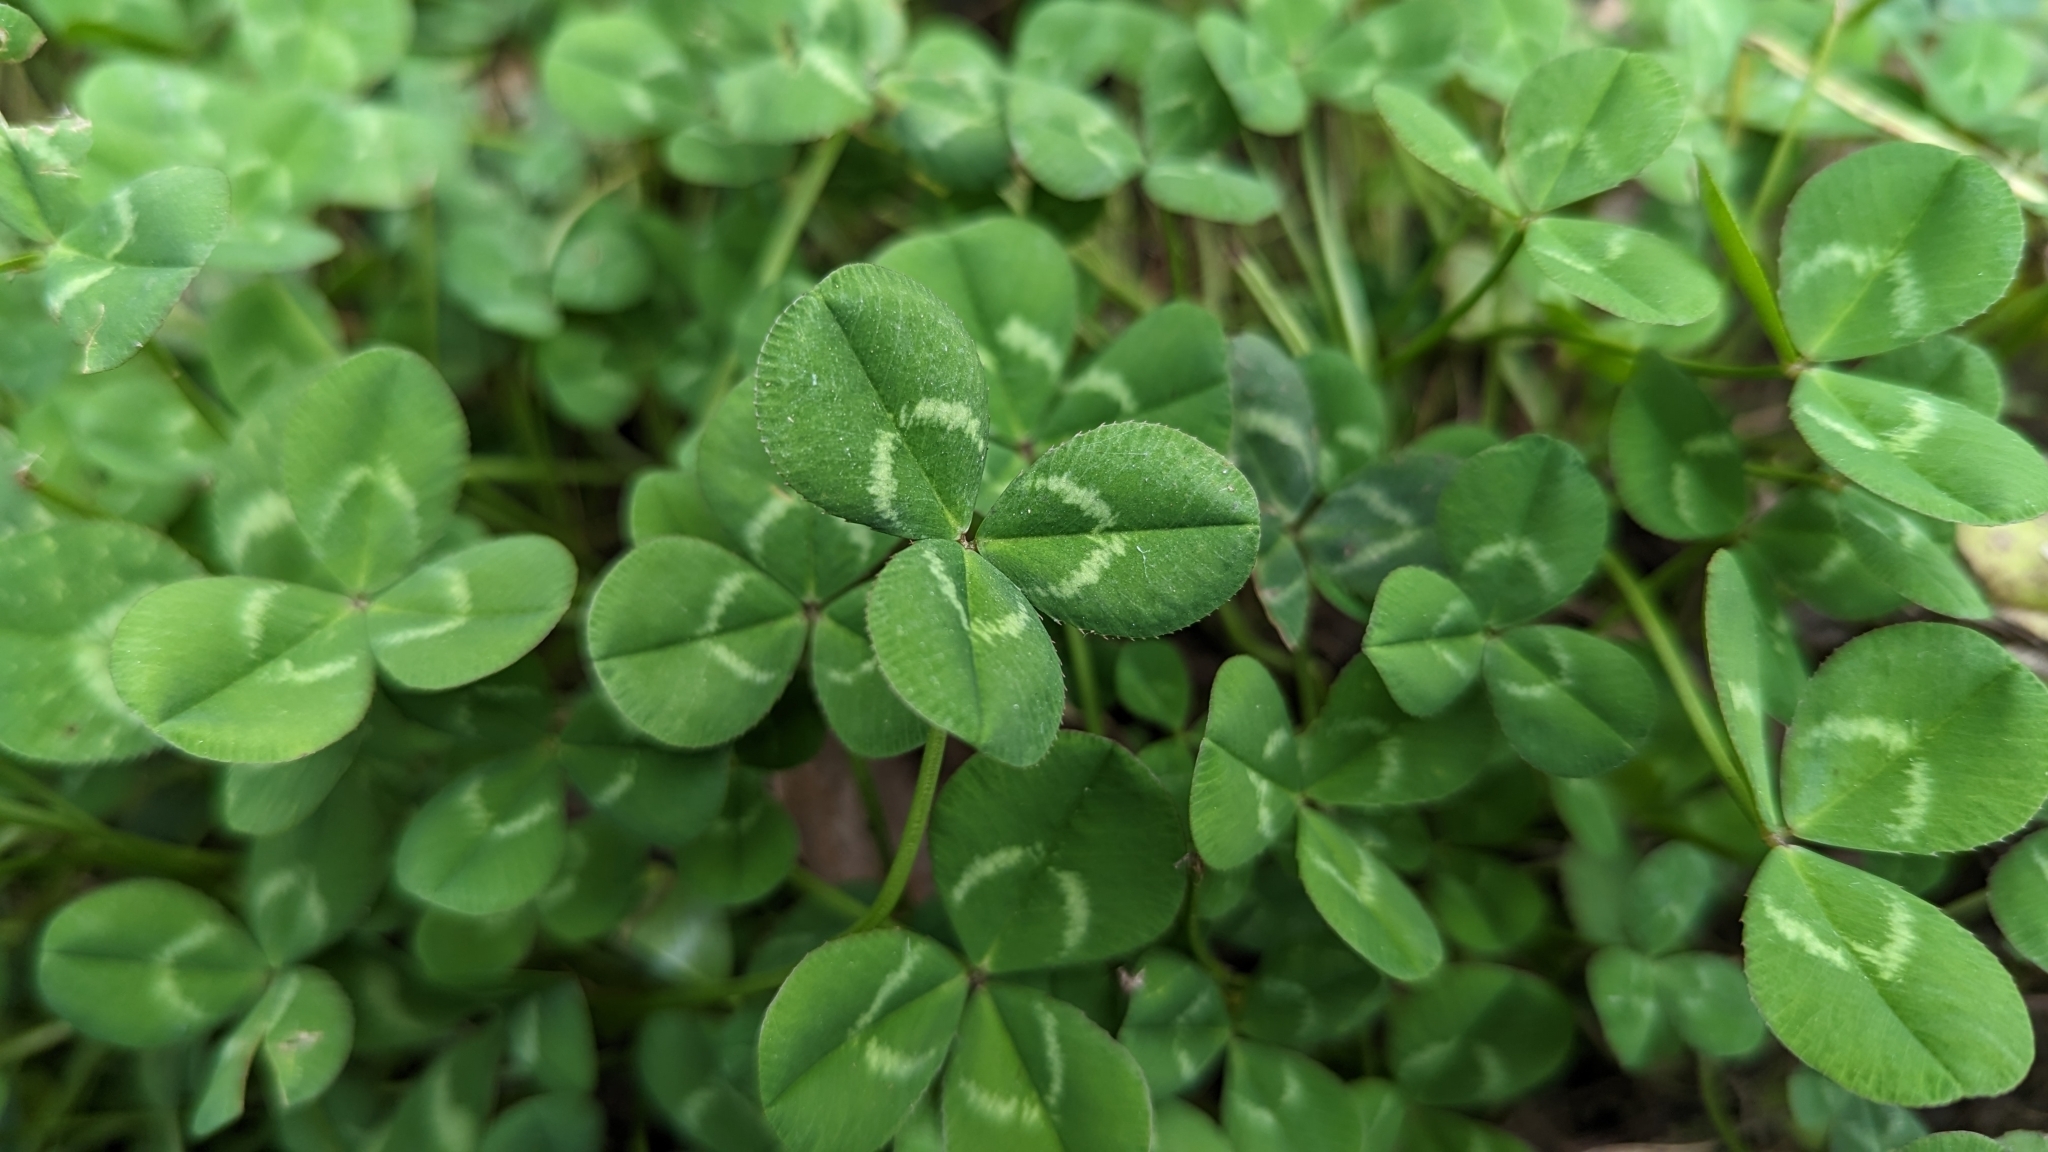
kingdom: Plantae
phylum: Tracheophyta
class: Magnoliopsida
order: Fabales
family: Fabaceae
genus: Trifolium
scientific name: Trifolium repens
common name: White clover
